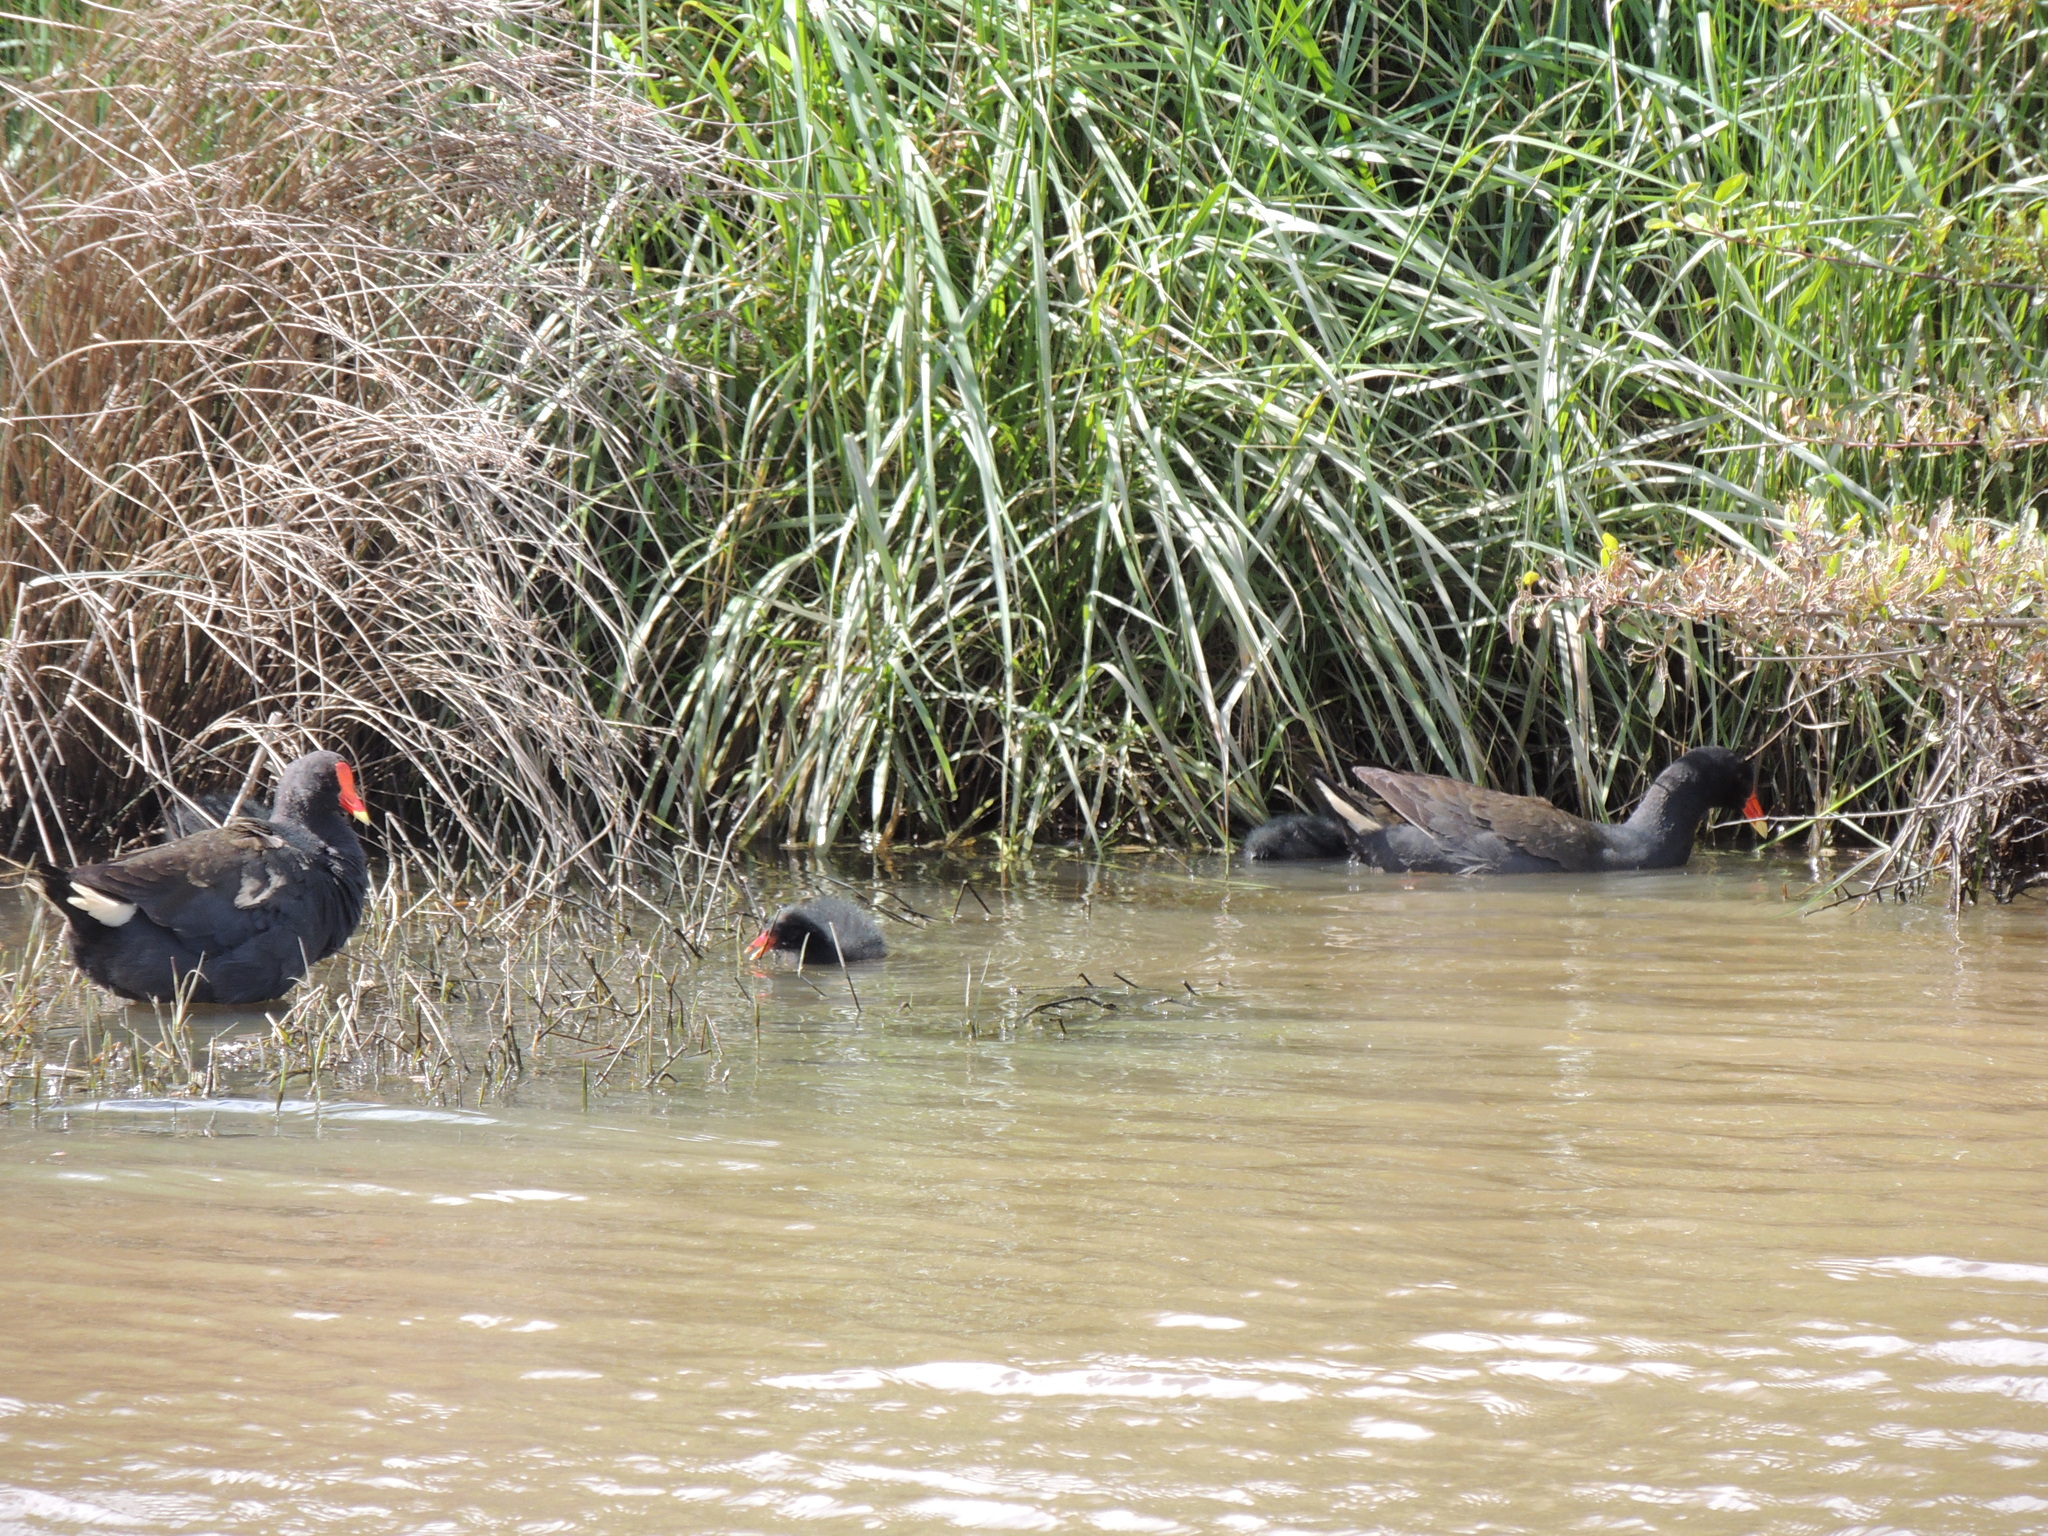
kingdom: Animalia
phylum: Chordata
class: Aves
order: Gruiformes
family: Rallidae
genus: Gallinula
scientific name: Gallinula tenebrosa
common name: Dusky moorhen
